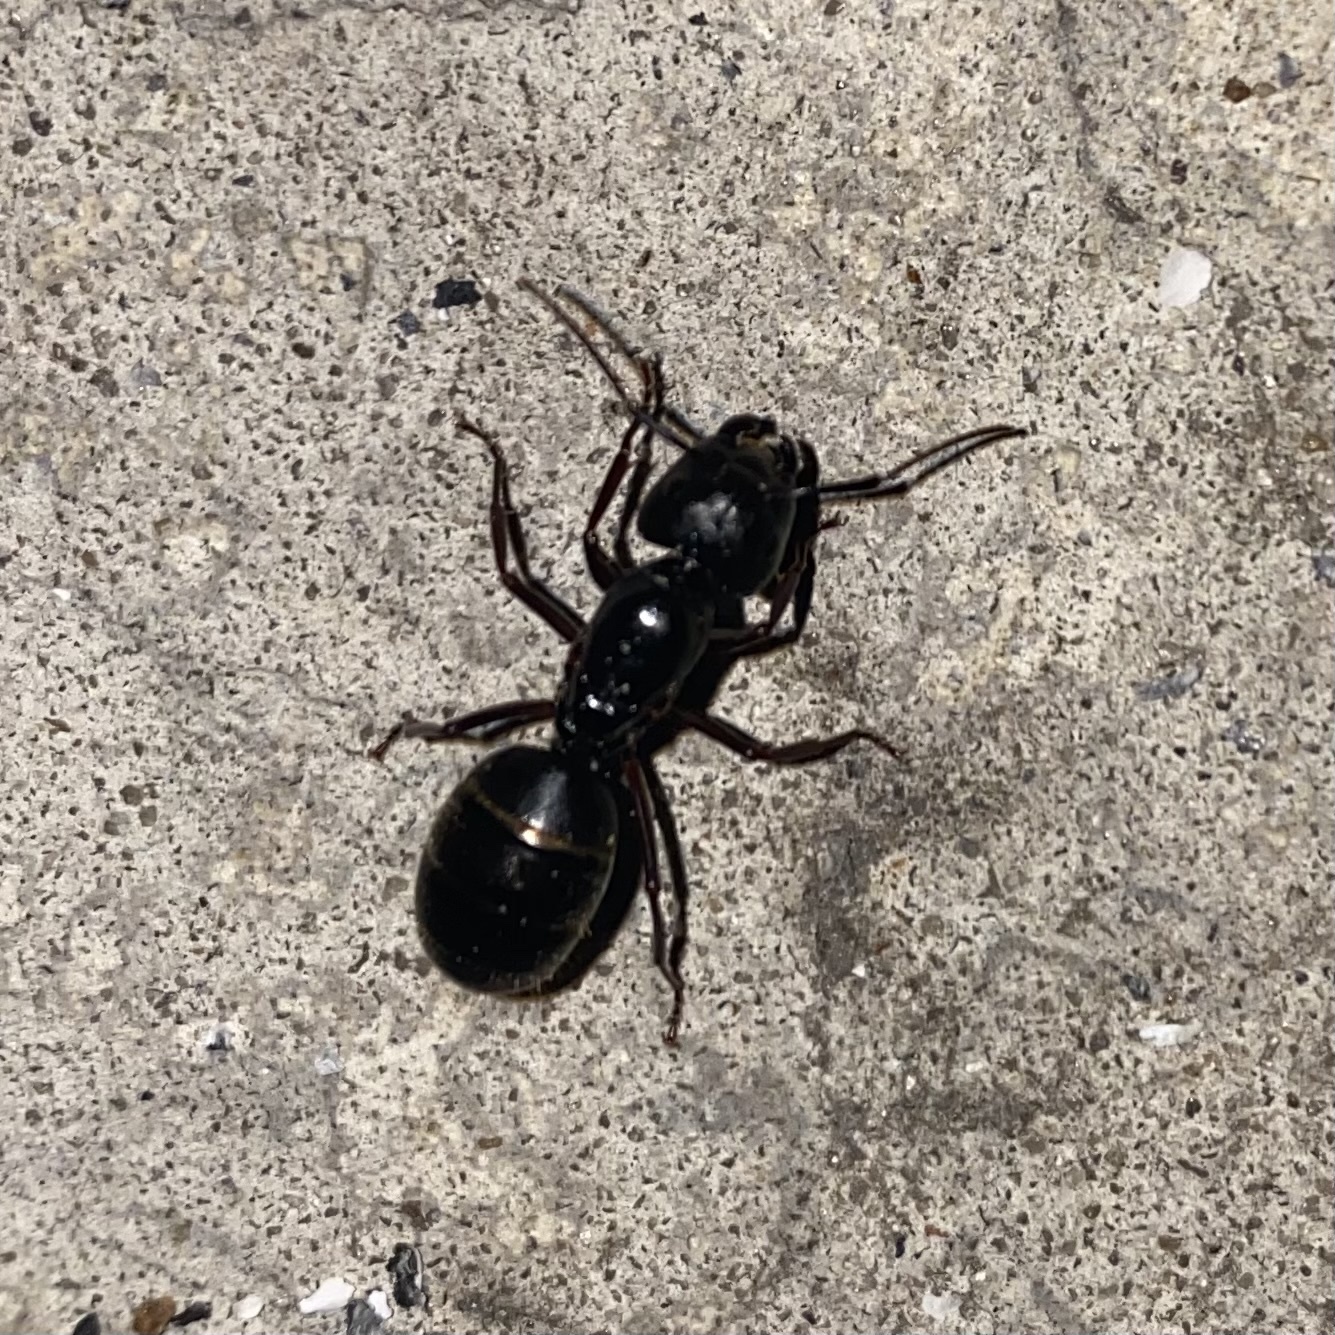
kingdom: Animalia
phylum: Arthropoda
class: Insecta
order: Hymenoptera
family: Formicidae
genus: Camponotus
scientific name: Camponotus pennsylvanicus
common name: Black carpenter ant
